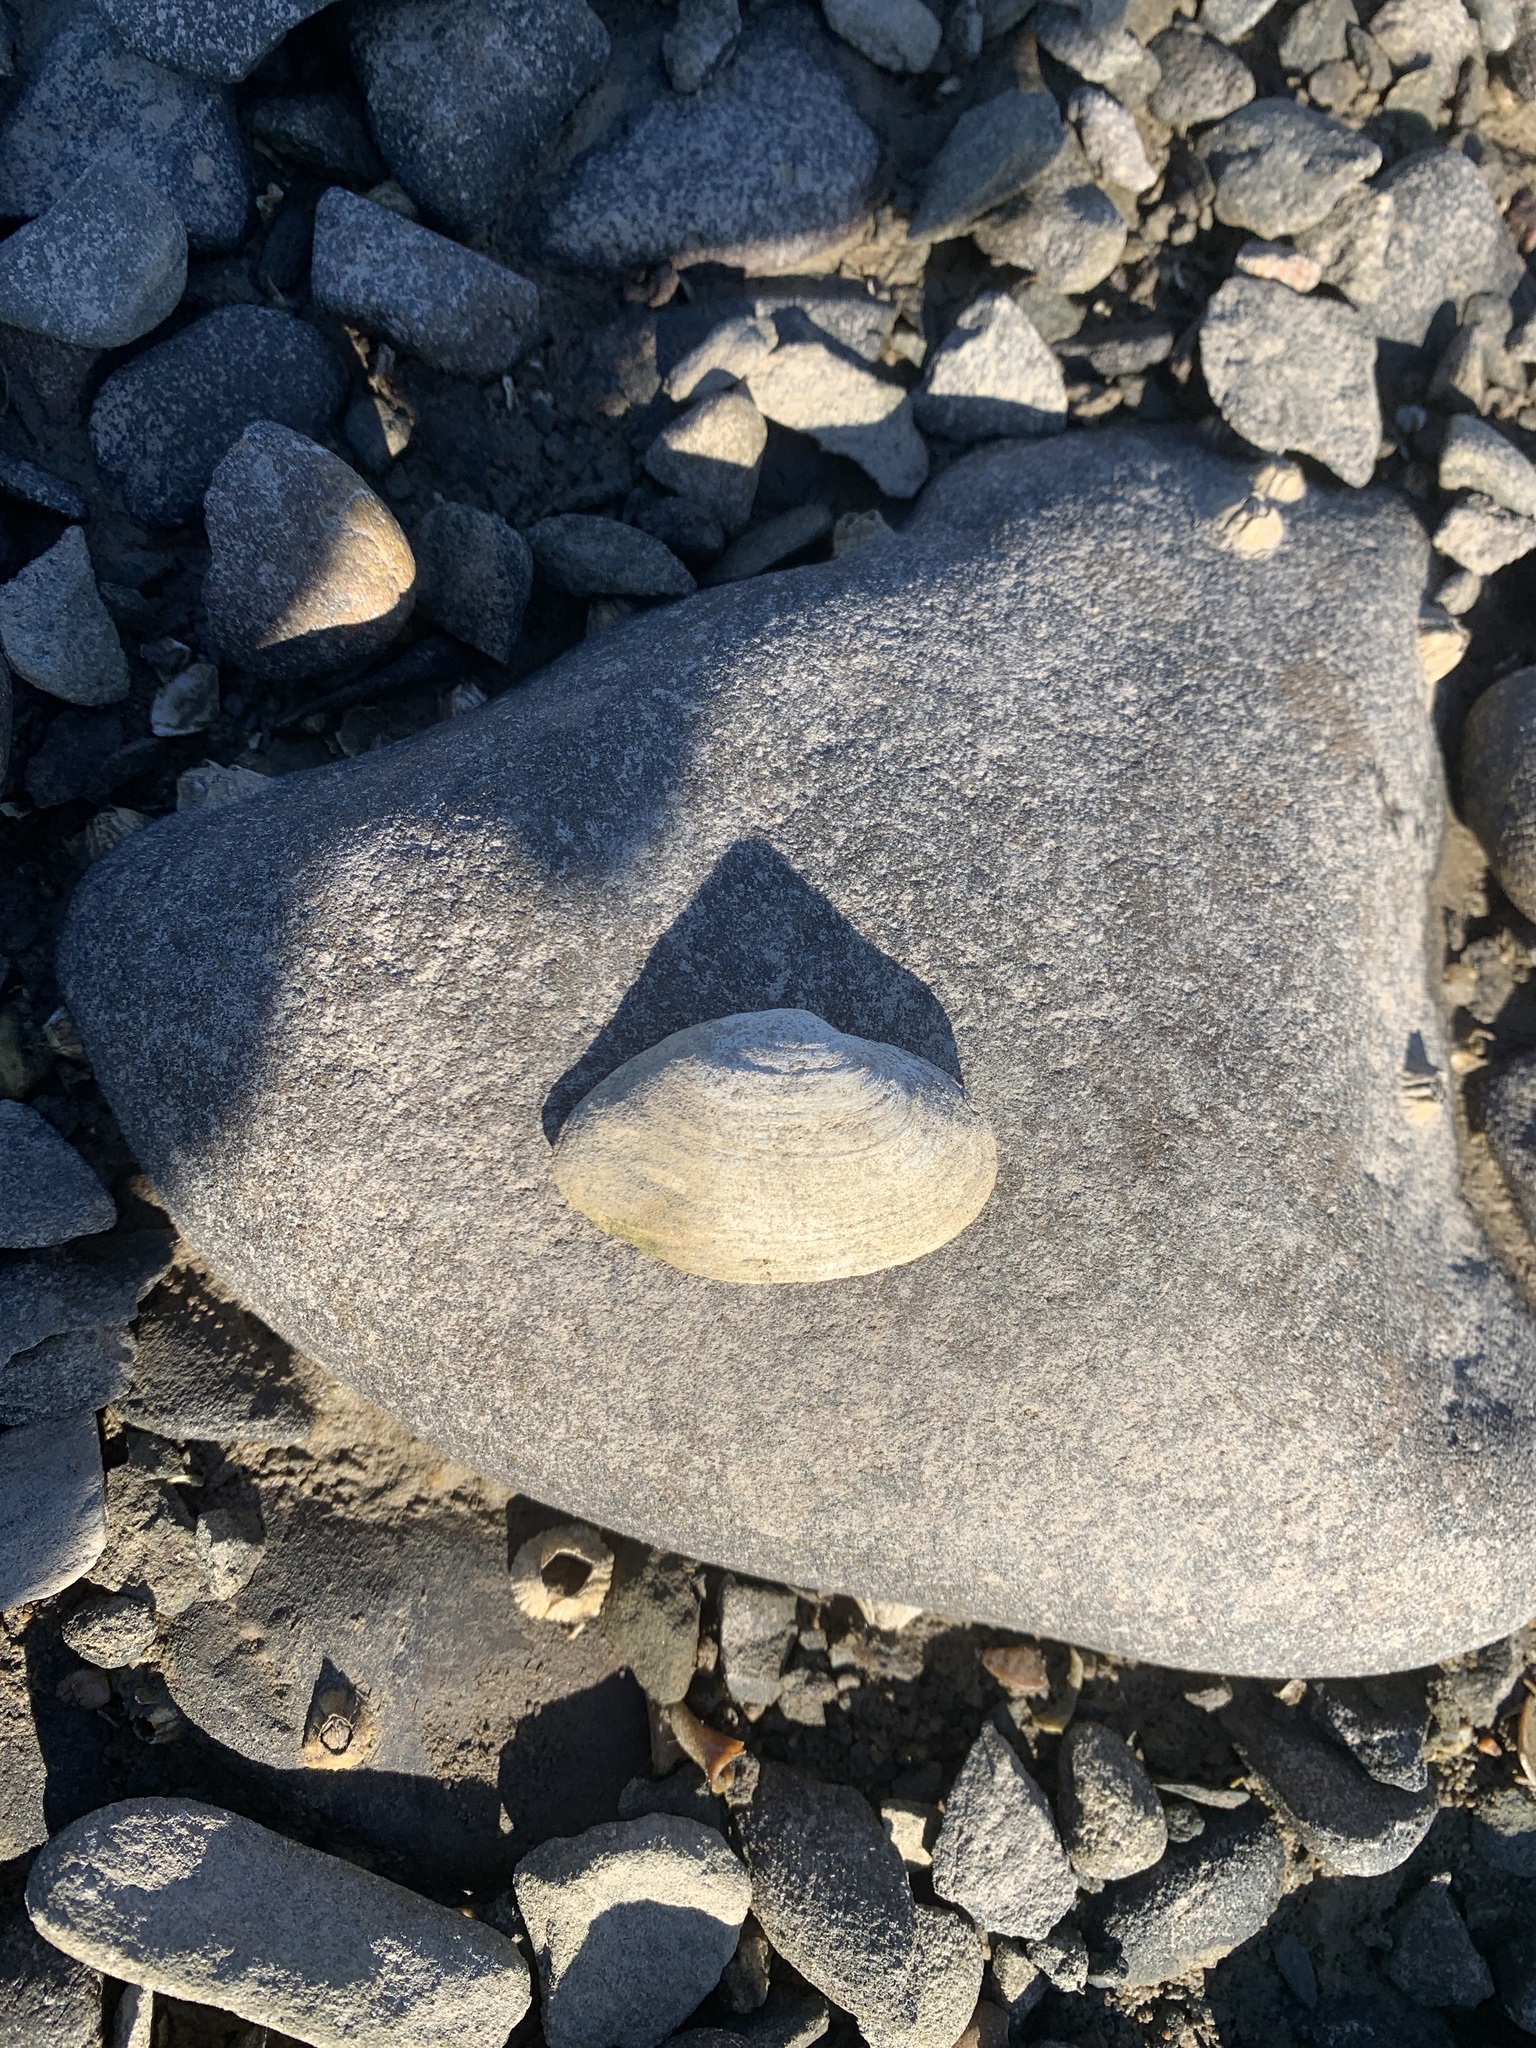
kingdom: Animalia
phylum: Mollusca
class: Bivalvia
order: Myida
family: Myidae
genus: Mya
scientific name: Mya arenaria
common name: Soft-shelled clam
